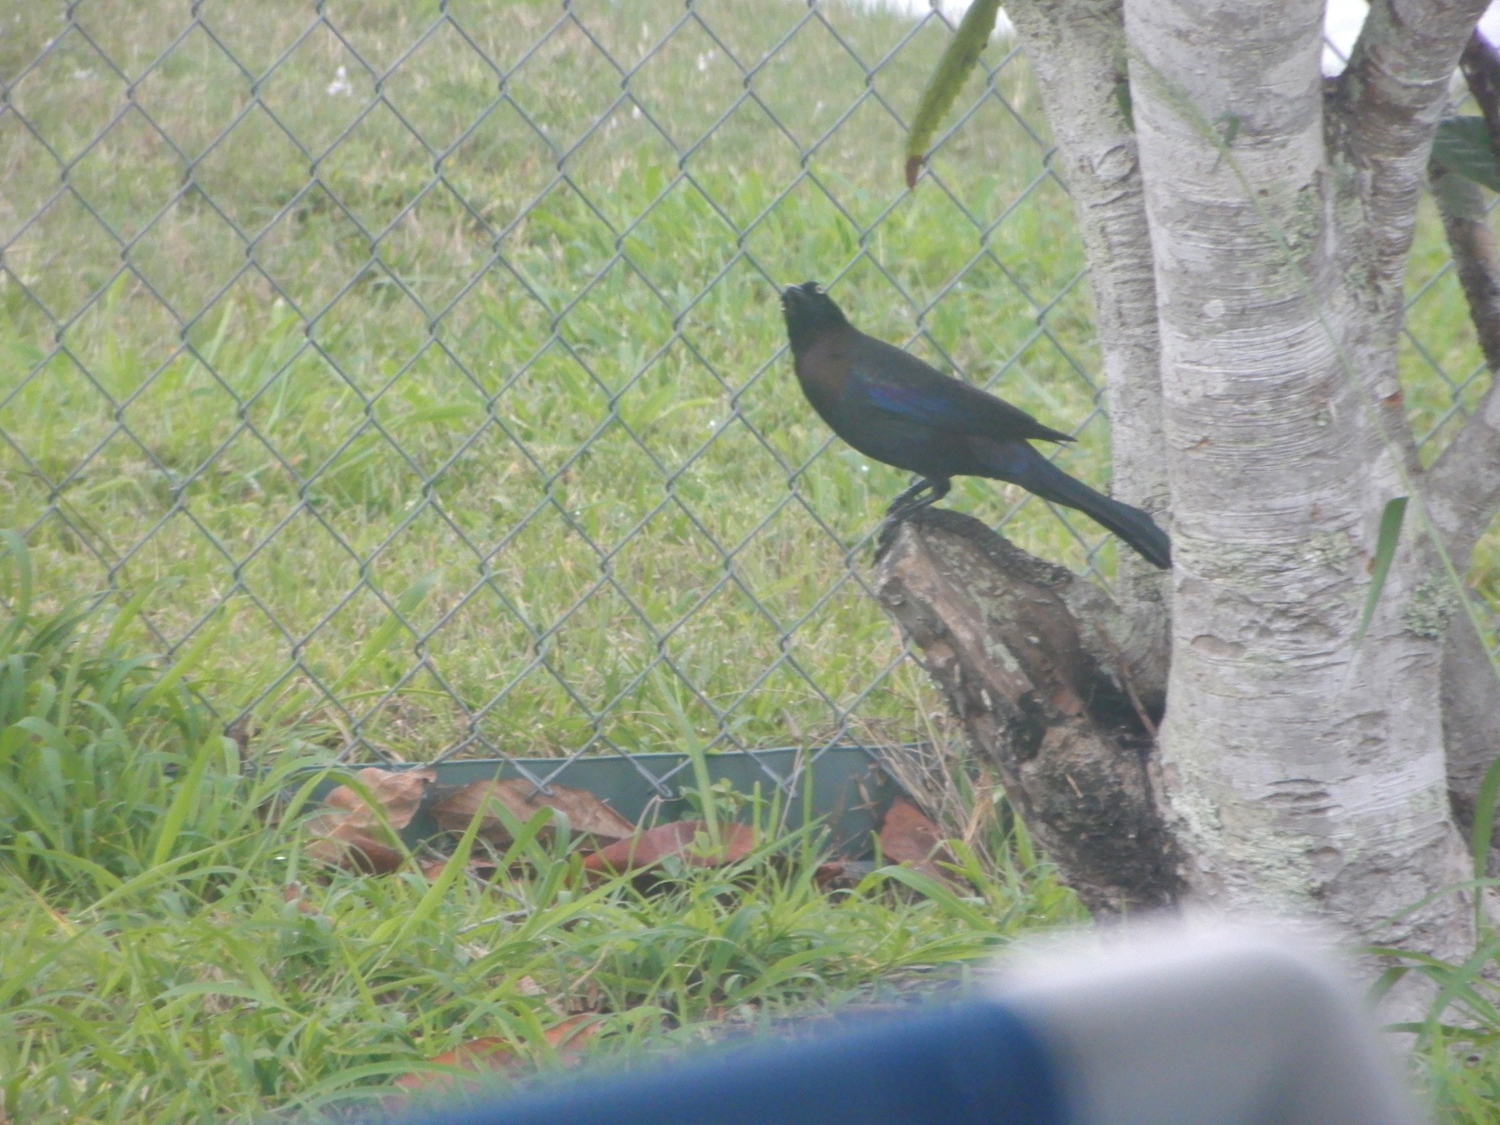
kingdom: Animalia
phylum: Chordata
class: Aves
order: Passeriformes
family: Icteridae
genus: Quiscalus
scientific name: Quiscalus quiscula
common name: Common grackle
